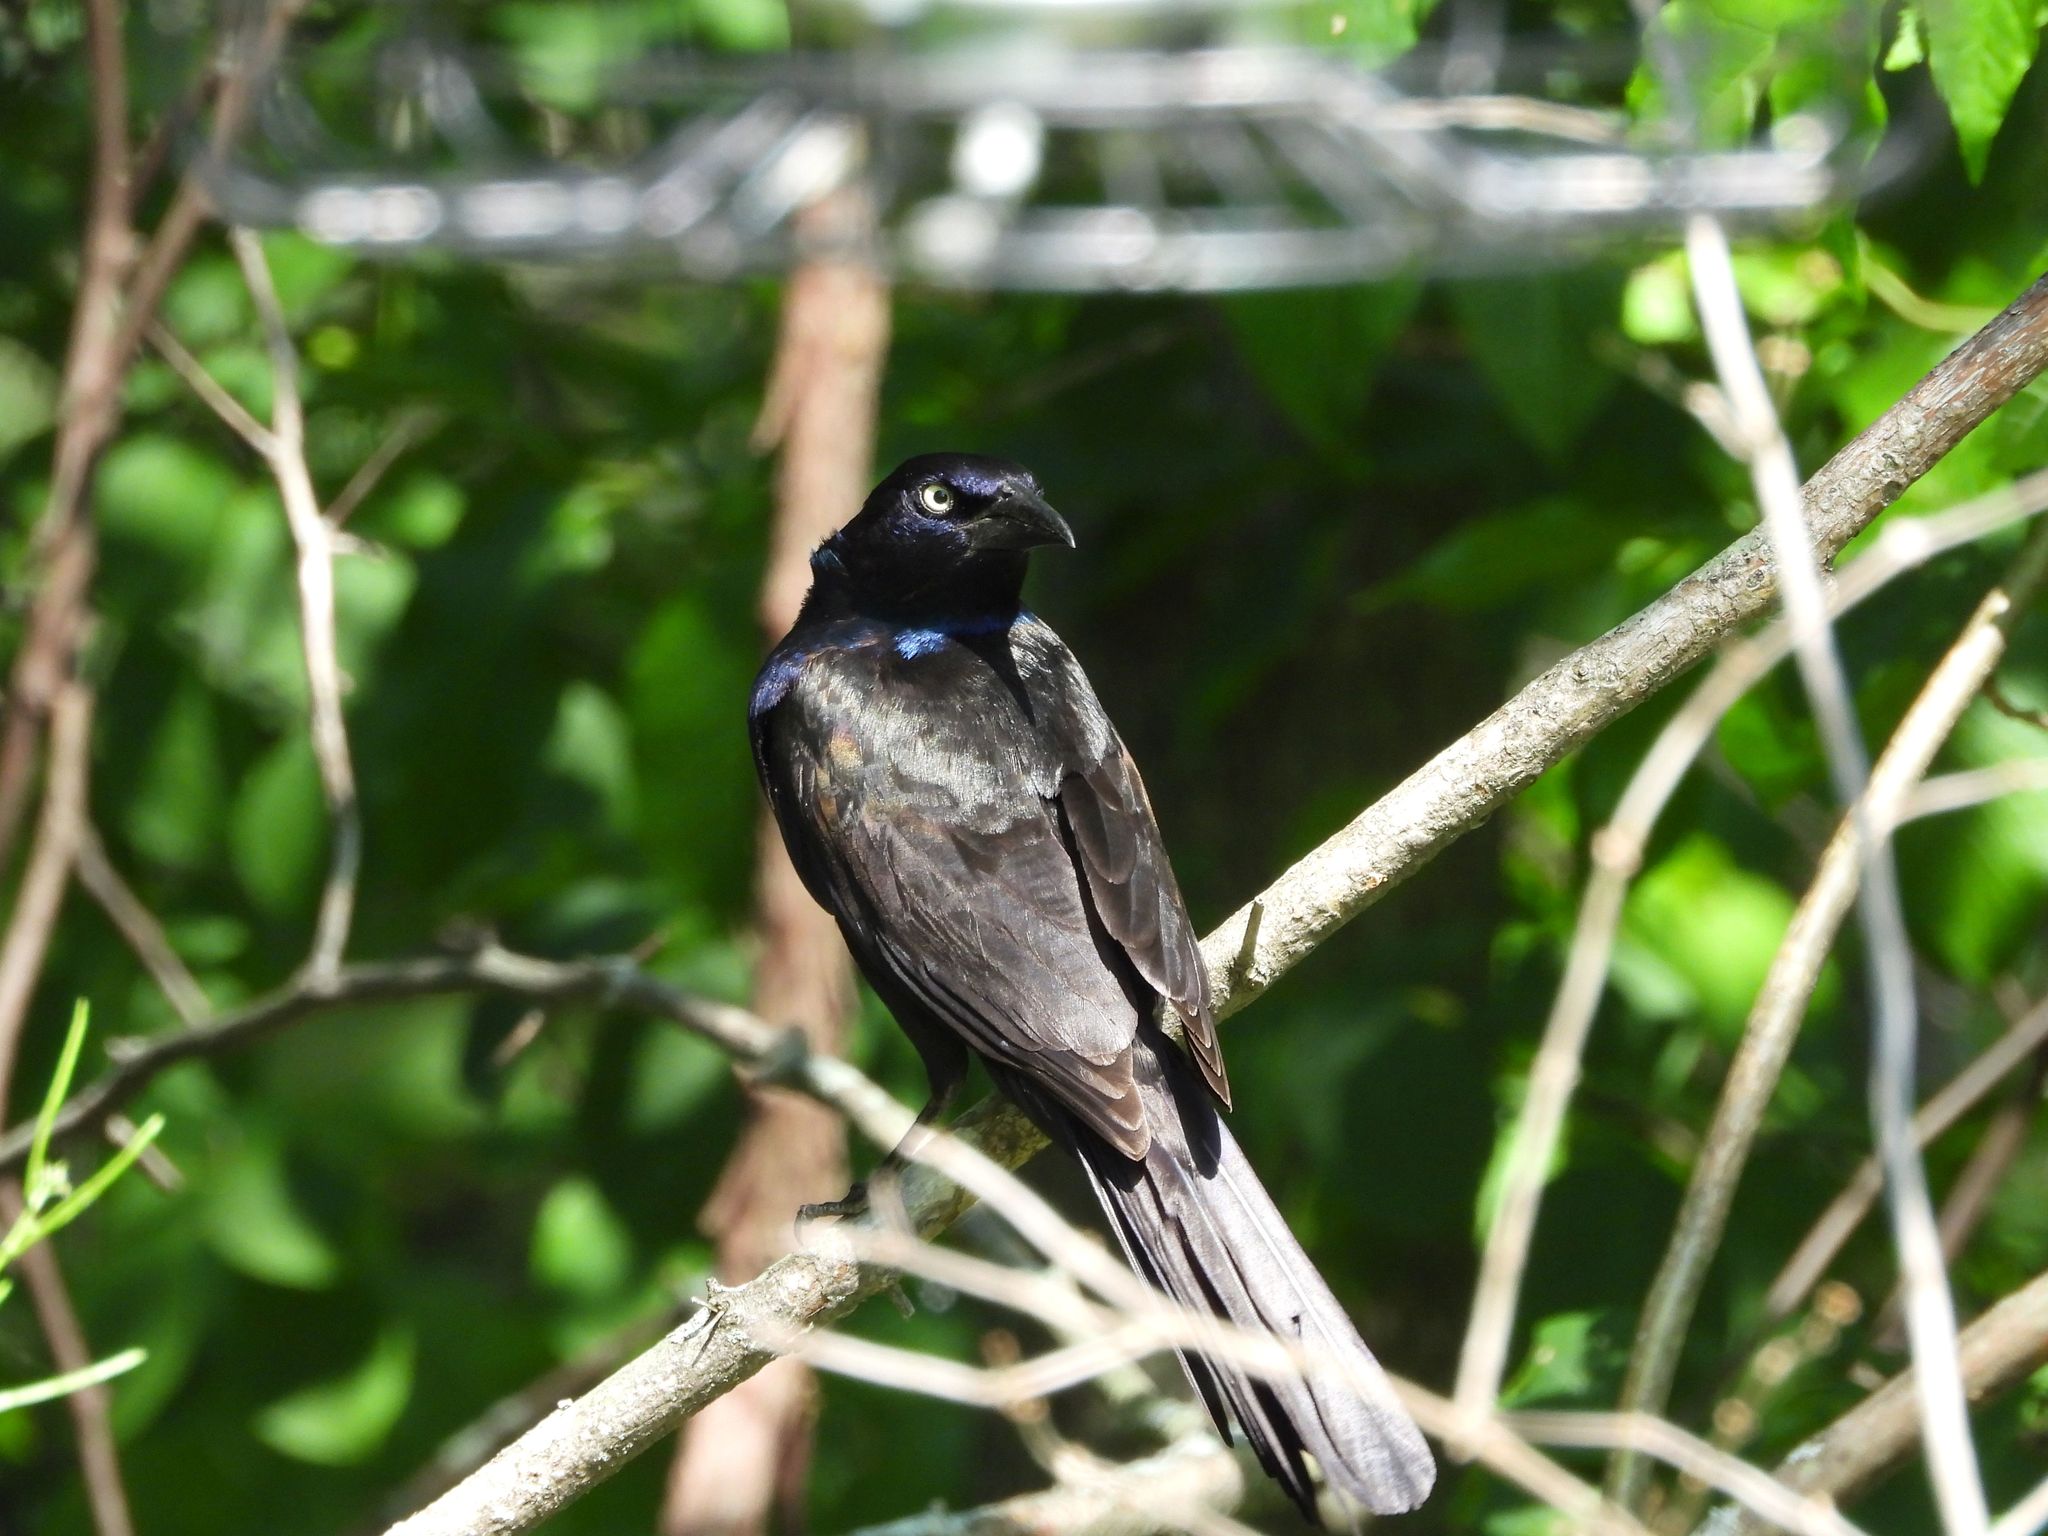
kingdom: Animalia
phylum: Chordata
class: Aves
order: Passeriformes
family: Icteridae
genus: Quiscalus
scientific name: Quiscalus quiscula
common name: Common grackle
